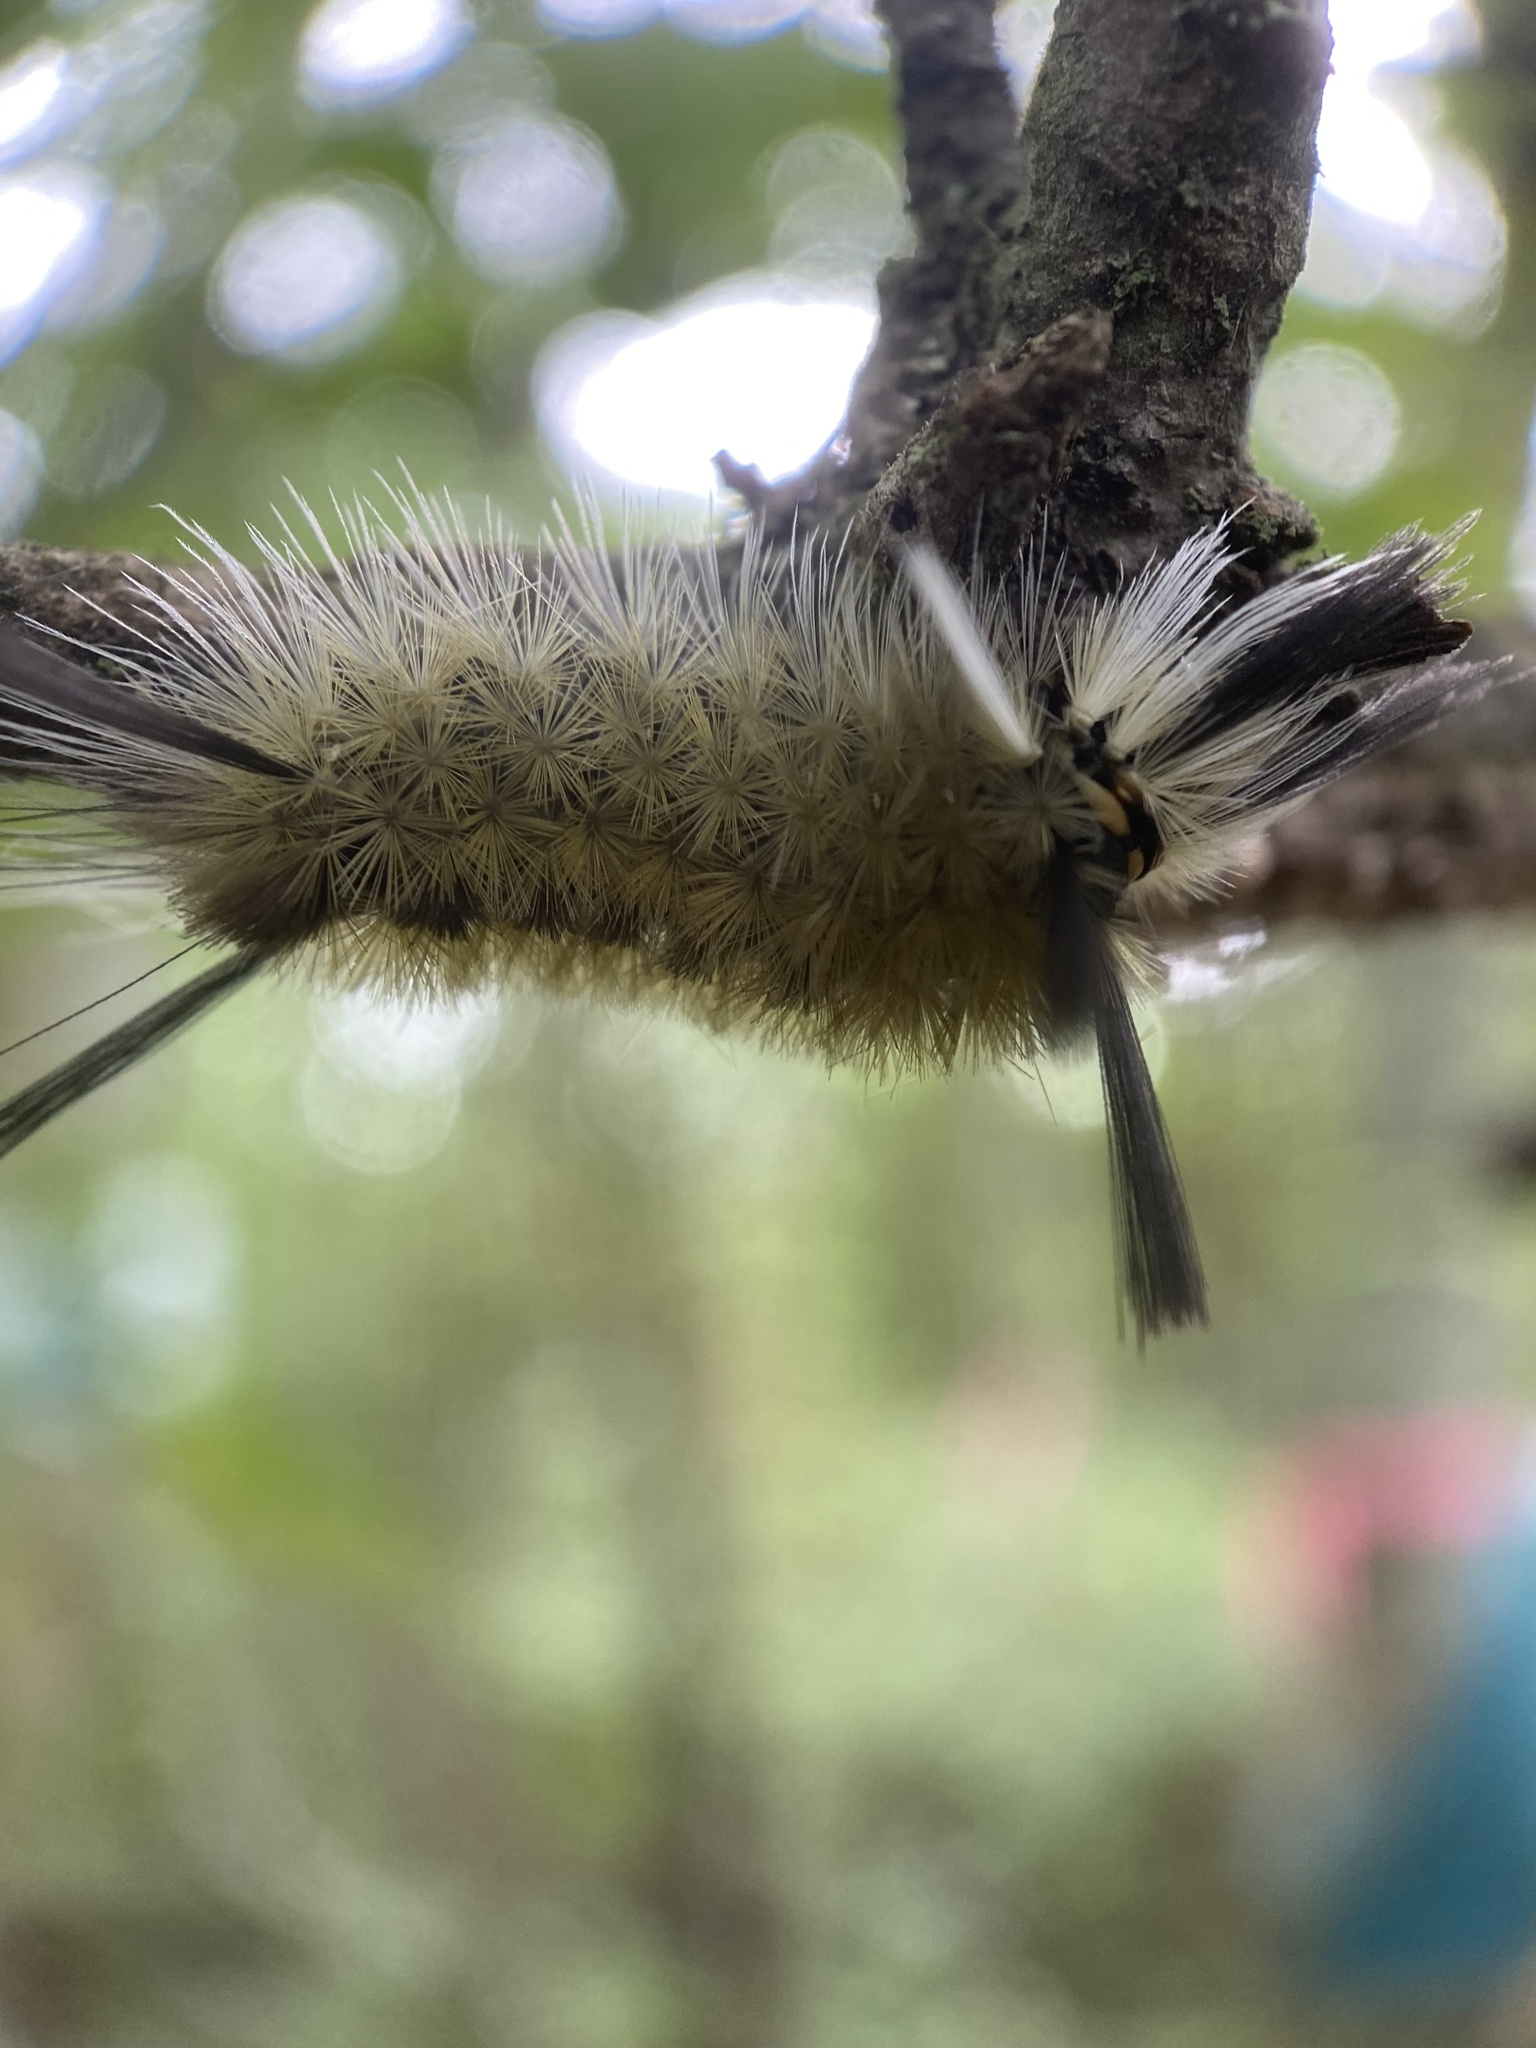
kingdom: Animalia
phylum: Arthropoda
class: Insecta
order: Lepidoptera
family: Erebidae
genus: Halysidota
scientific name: Halysidota tessellaris
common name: Banded tussock moth
